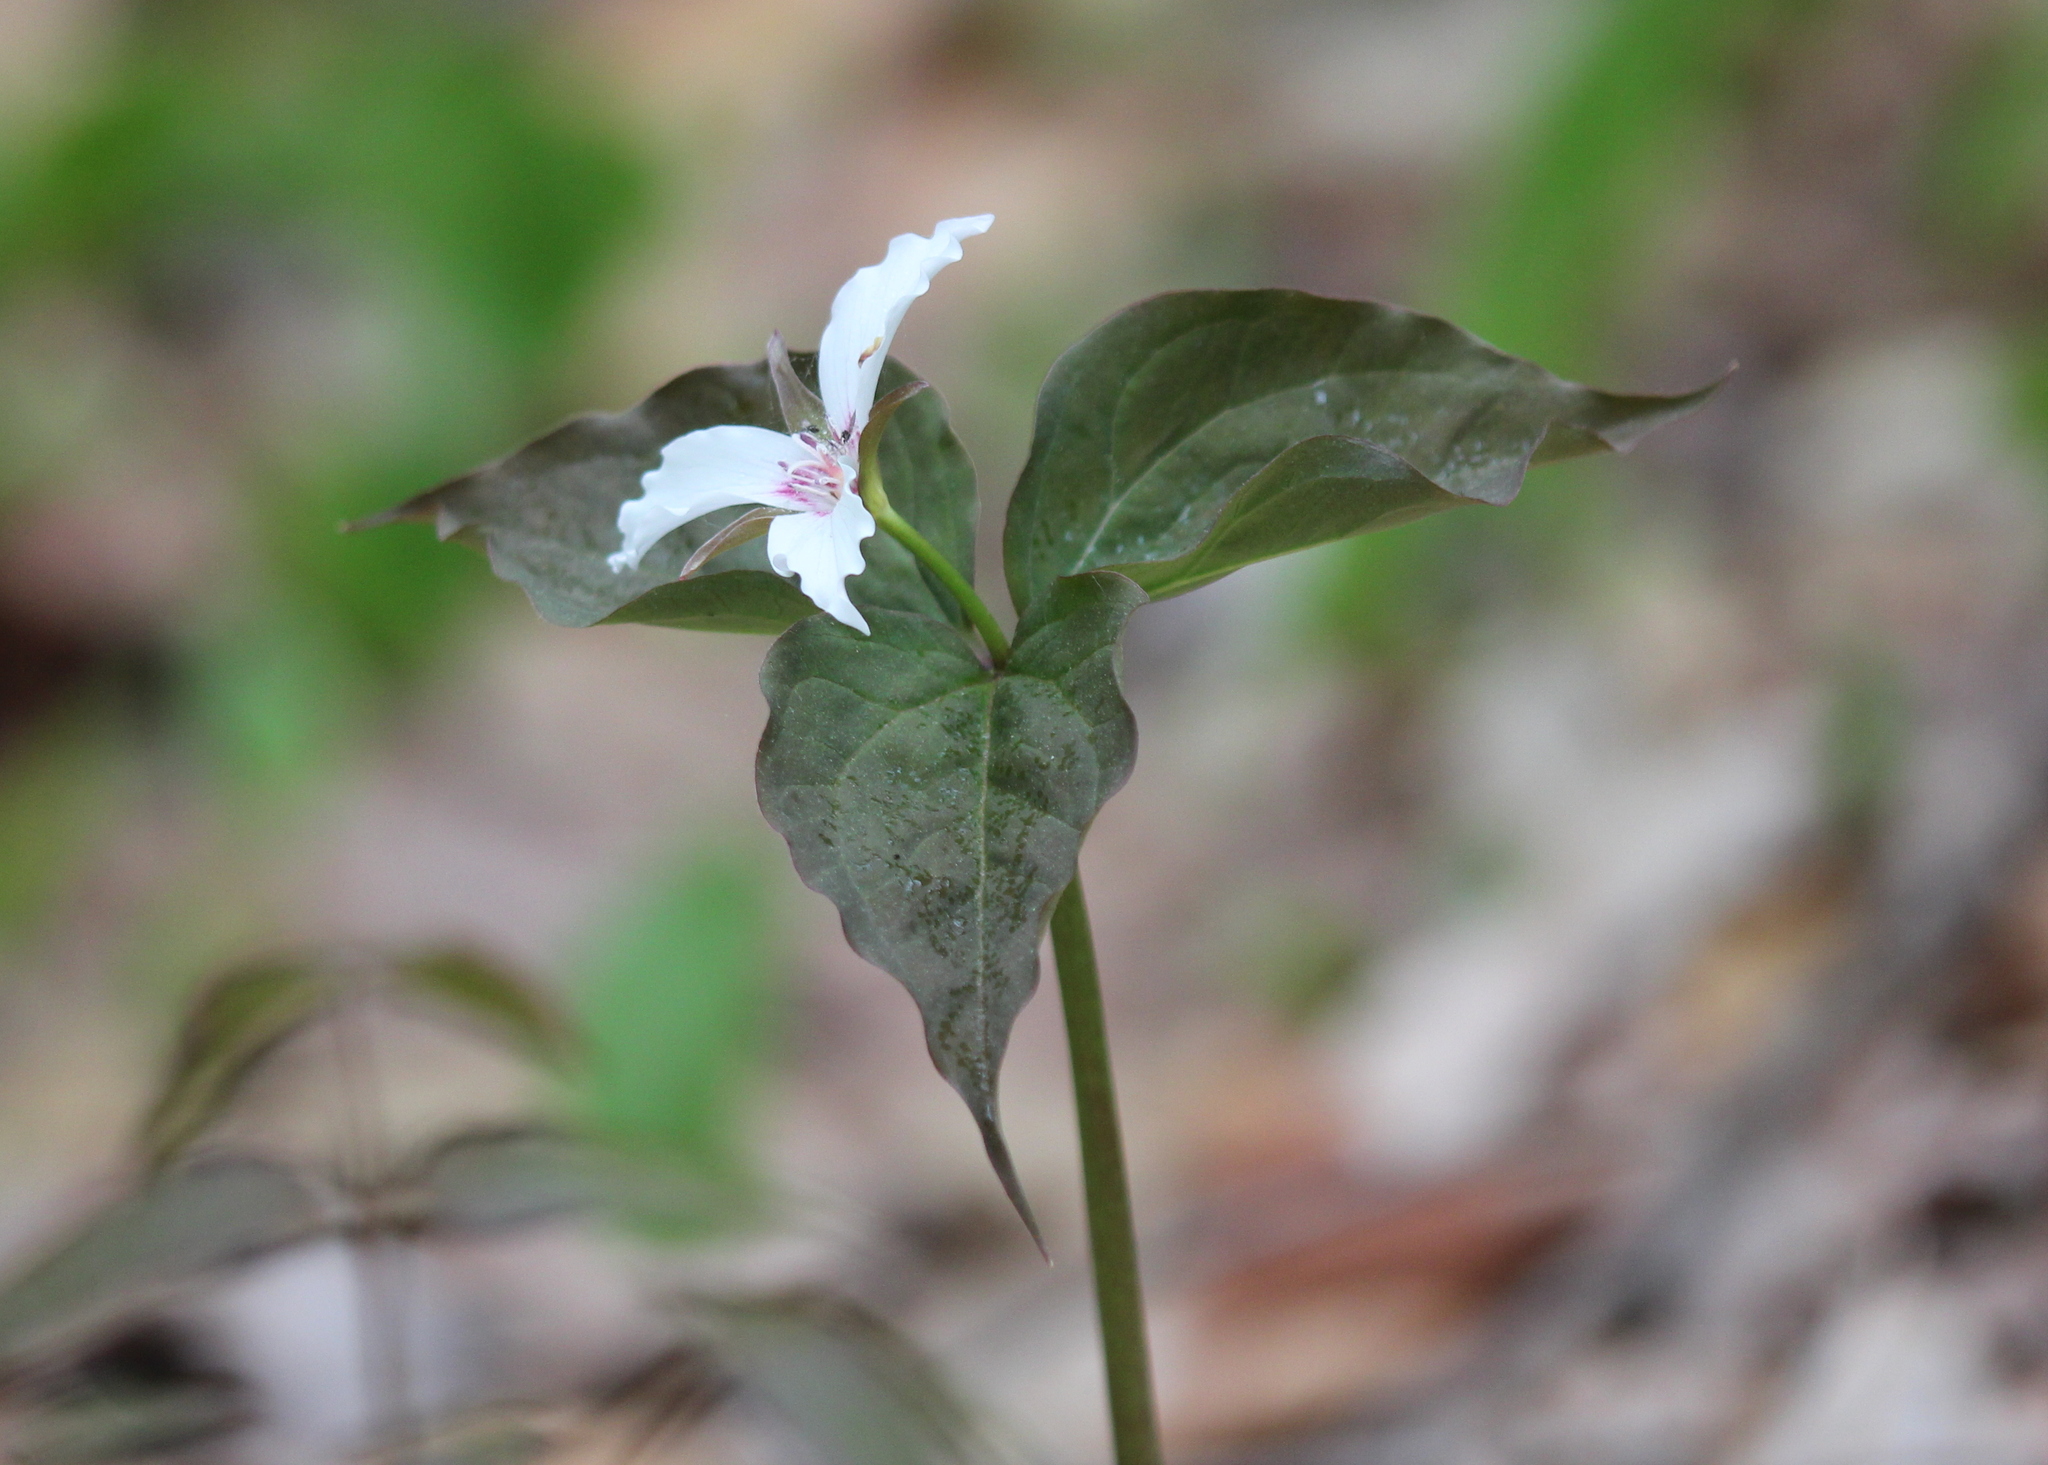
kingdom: Plantae
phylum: Tracheophyta
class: Liliopsida
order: Liliales
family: Melanthiaceae
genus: Trillium
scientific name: Trillium undulatum
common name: Paint trillium
